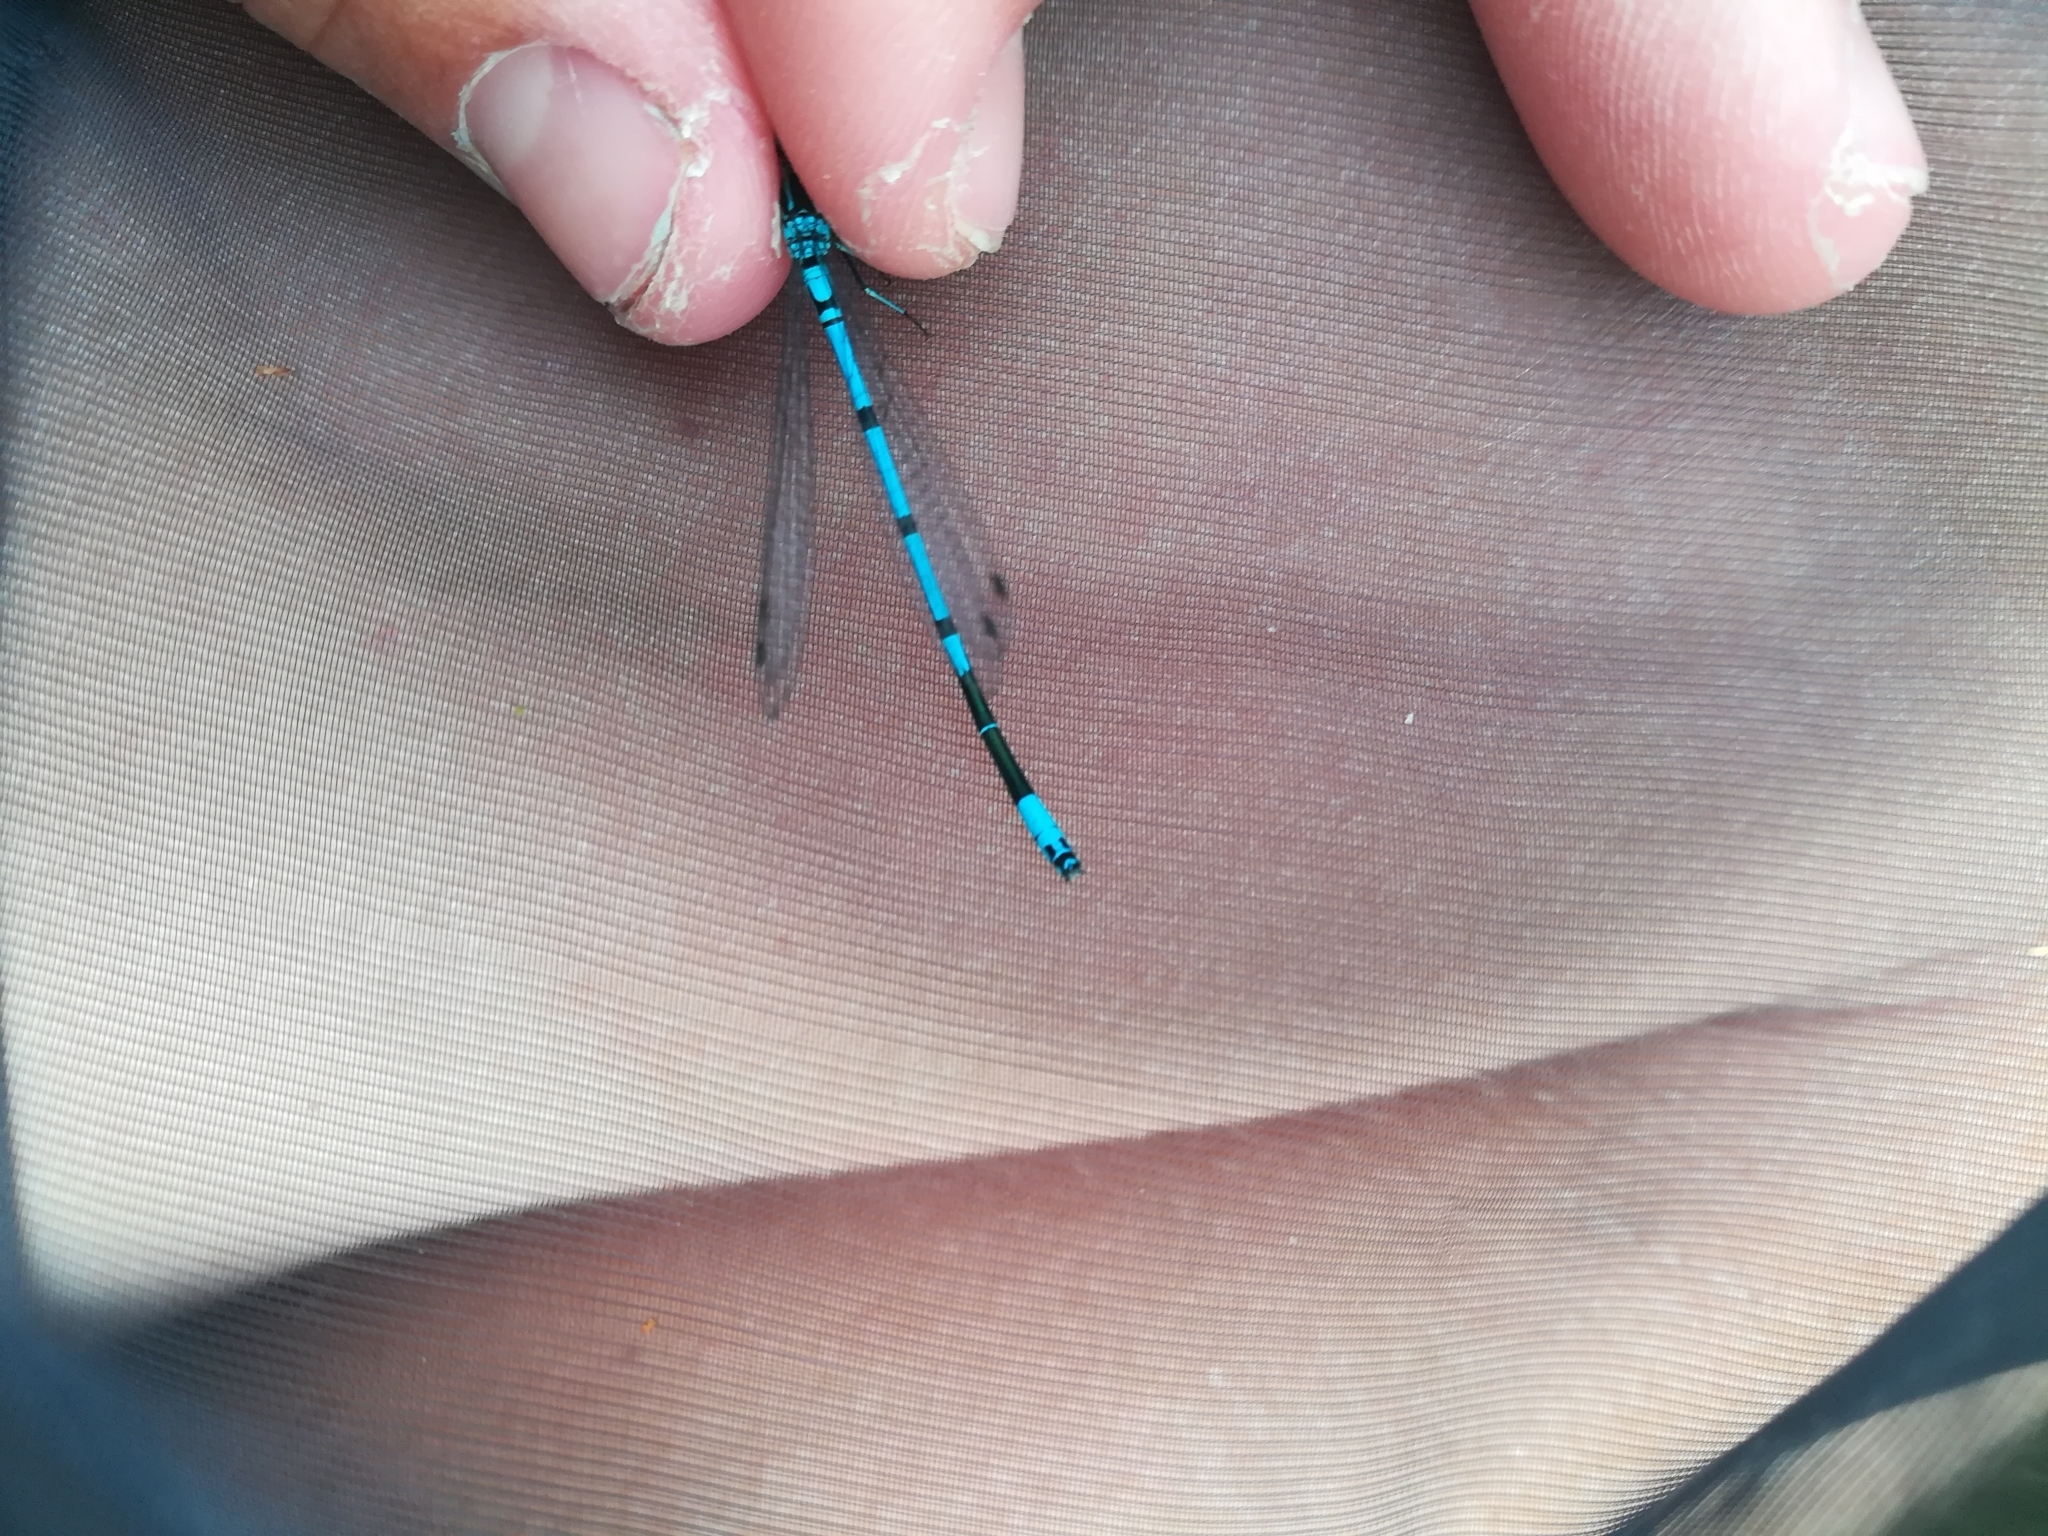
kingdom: Animalia
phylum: Arthropoda
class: Insecta
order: Odonata
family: Coenagrionidae
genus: Coenagrion
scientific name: Coenagrion puella
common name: Azure damselfly
